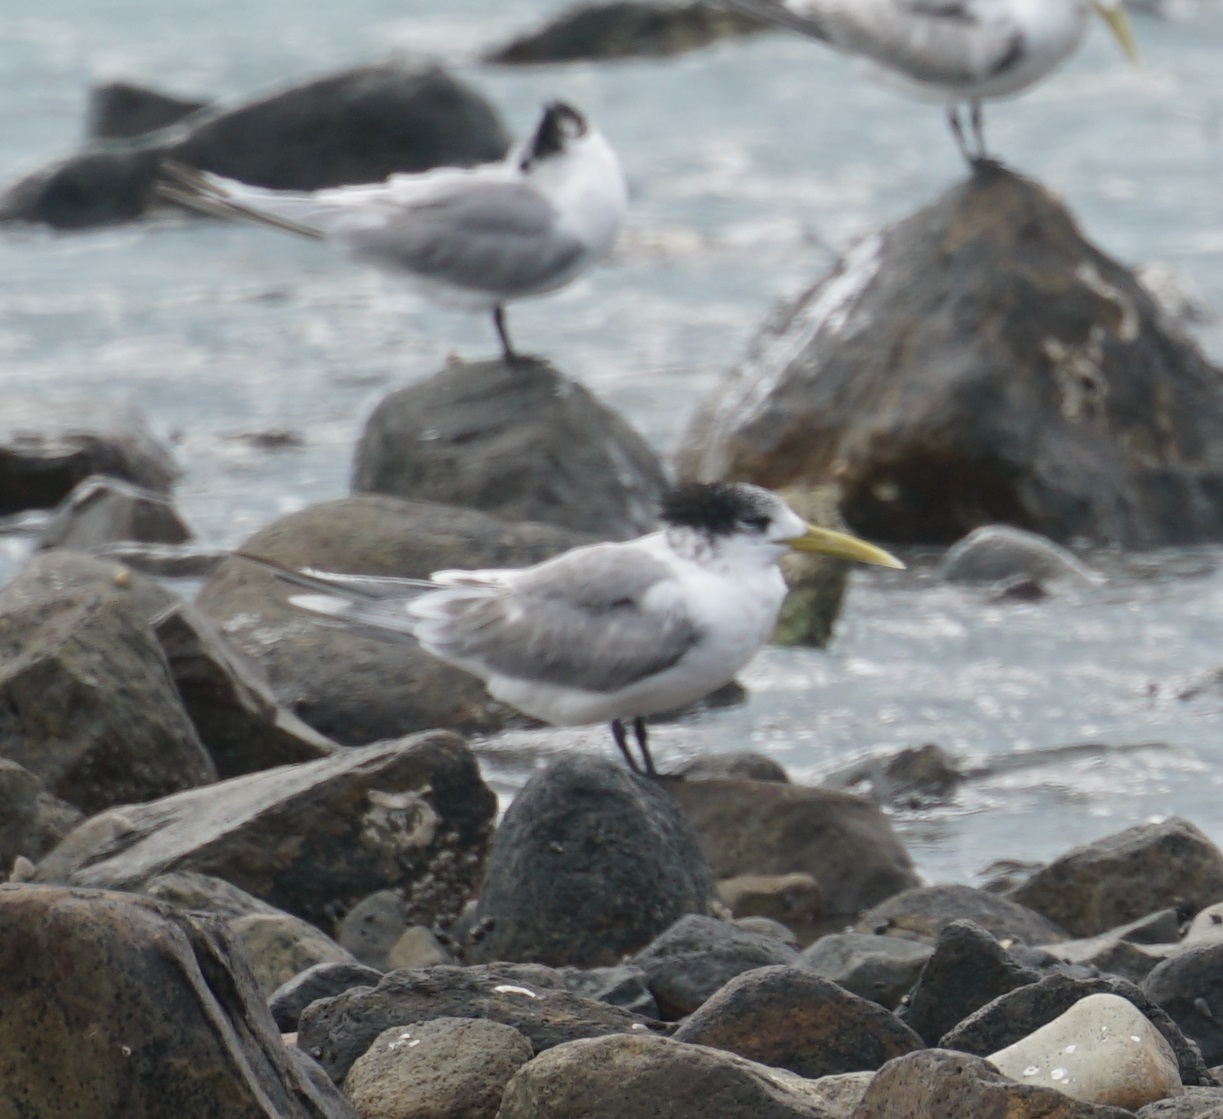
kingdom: Animalia
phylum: Chordata
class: Aves
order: Charadriiformes
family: Laridae
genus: Thalasseus
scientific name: Thalasseus bergii
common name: Greater crested tern
